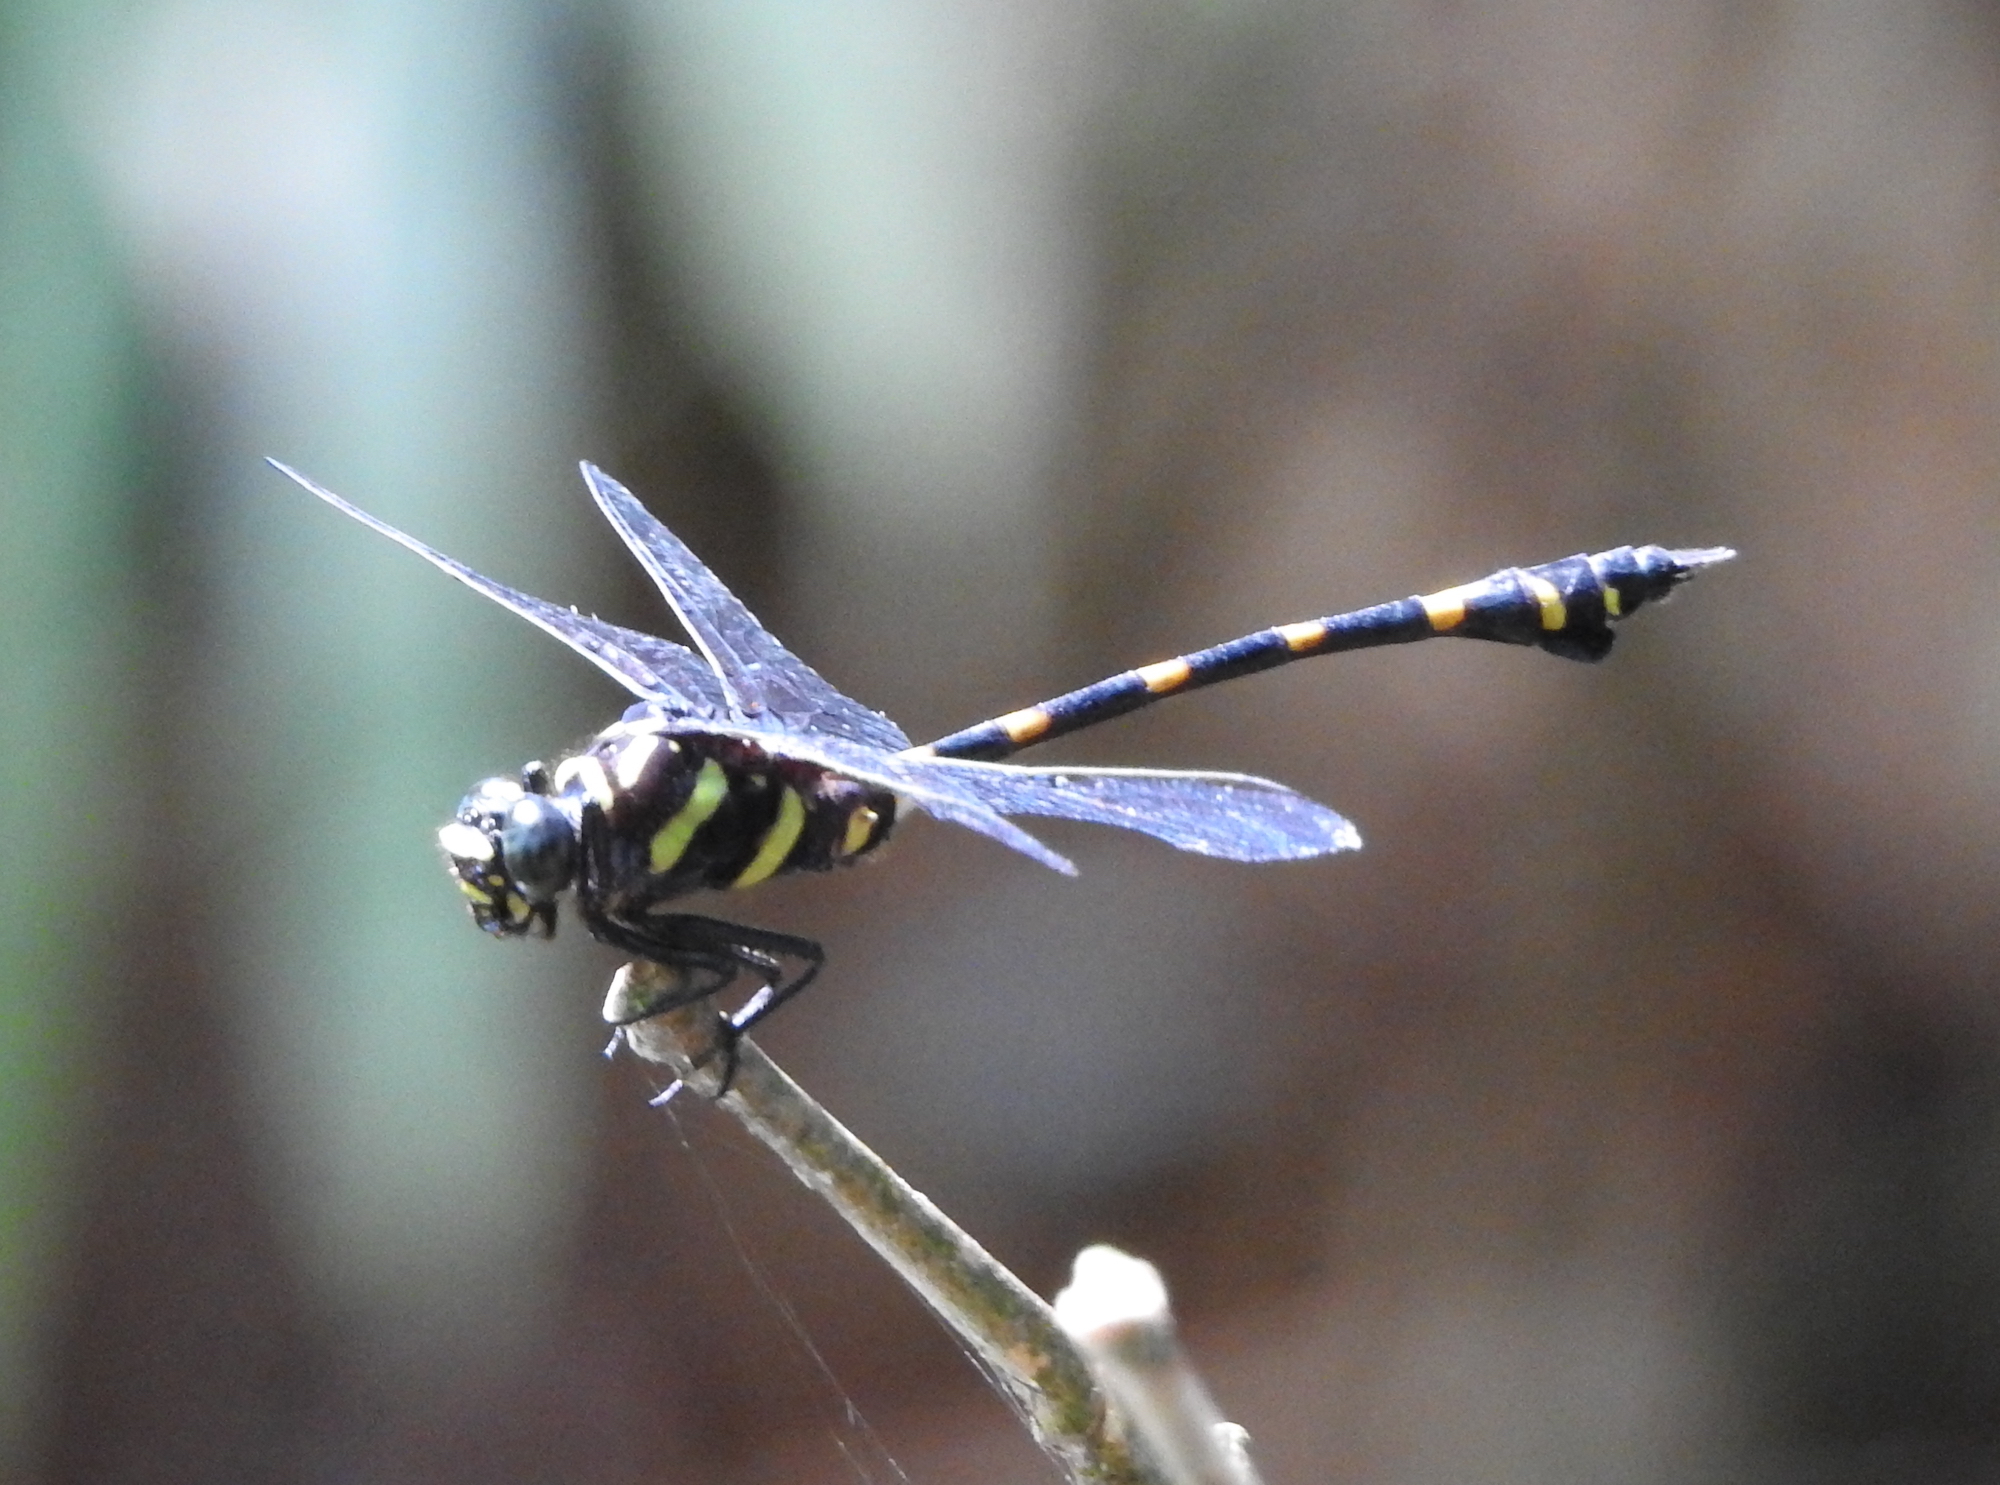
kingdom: Animalia
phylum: Arthropoda
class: Insecta
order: Odonata
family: Gomphidae
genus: Ictinogomphus
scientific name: Ictinogomphus decoratus
